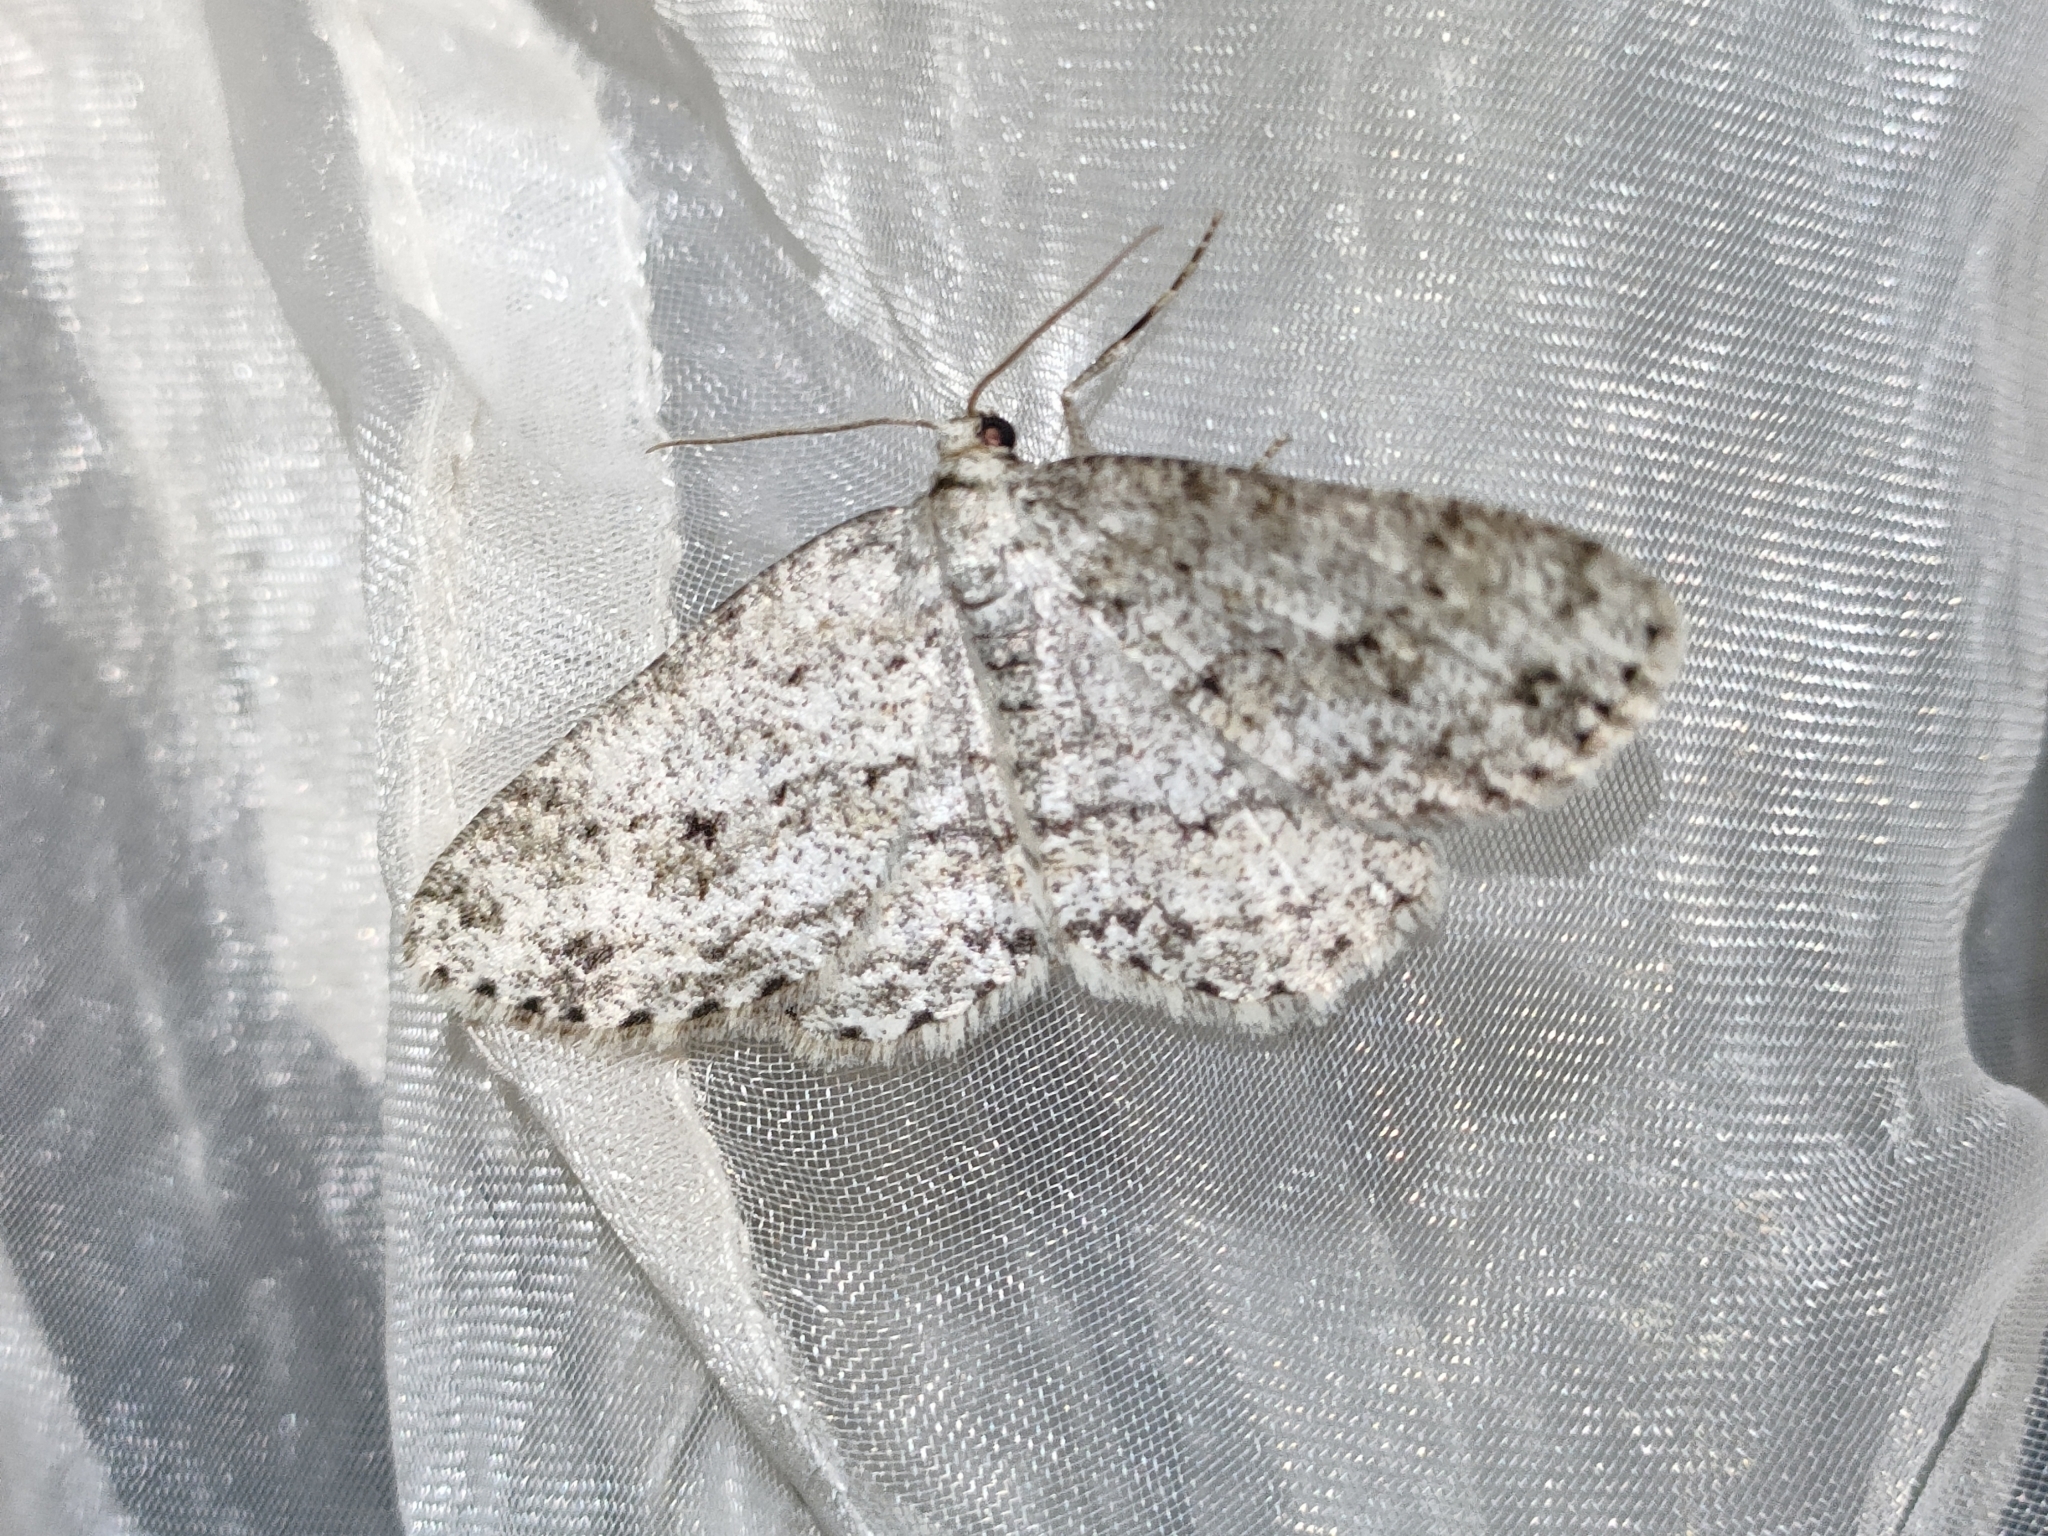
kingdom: Animalia
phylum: Arthropoda
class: Insecta
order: Lepidoptera
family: Geometridae
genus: Ectropis
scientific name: Ectropis crepuscularia
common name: Engrailed
